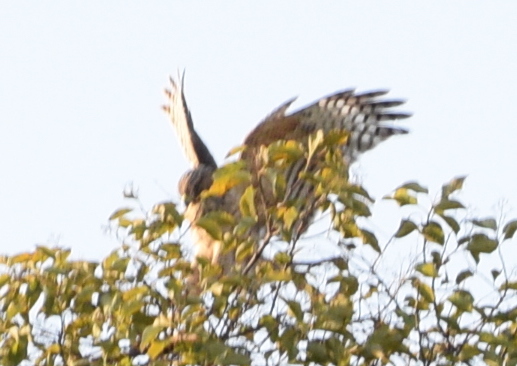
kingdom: Animalia
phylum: Chordata
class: Aves
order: Accipitriformes
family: Accipitridae
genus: Buteo
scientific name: Buteo lineatus
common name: Red-shouldered hawk
